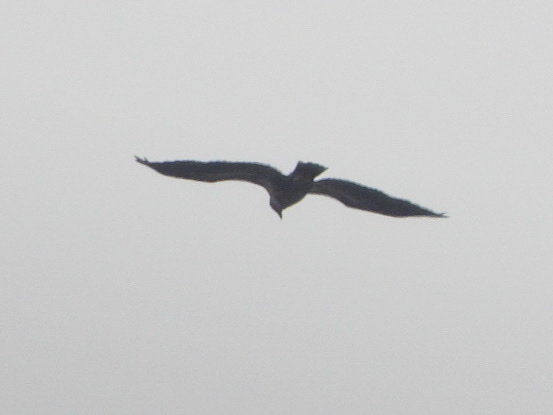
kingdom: Animalia
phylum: Chordata
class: Aves
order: Accipitriformes
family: Accipitridae
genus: Haliaeetus
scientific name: Haliaeetus leucocephalus
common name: Bald eagle
